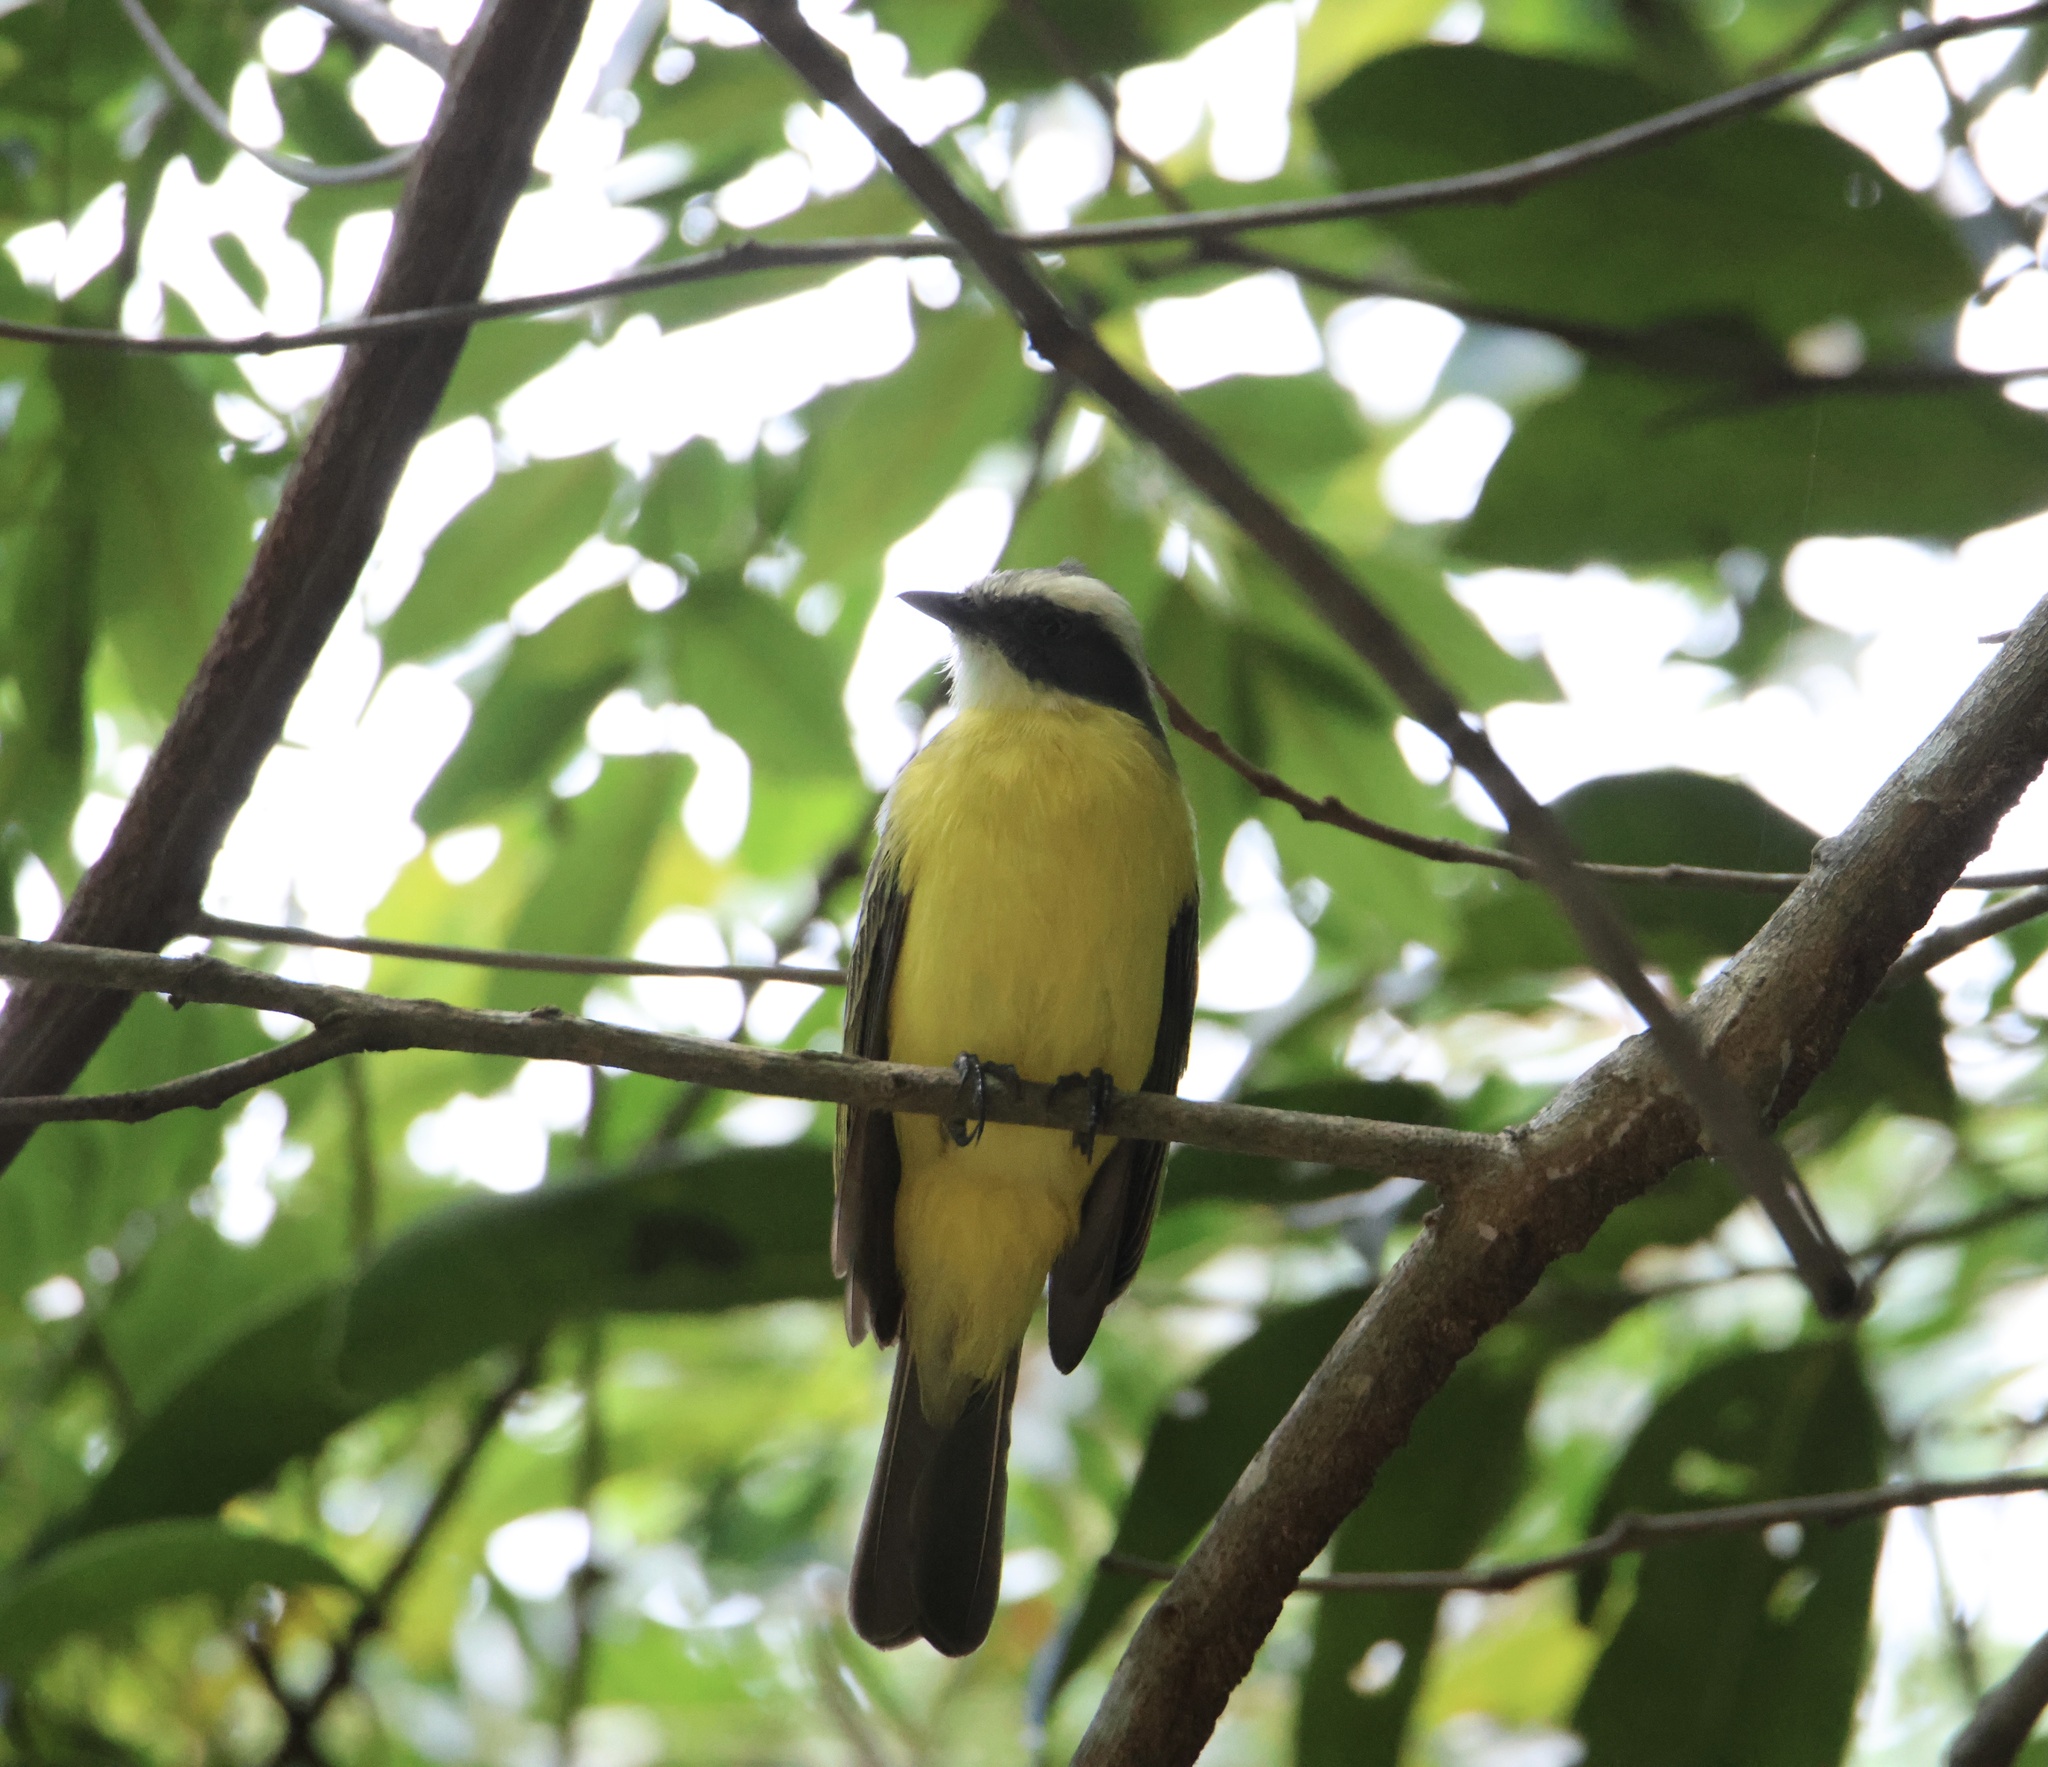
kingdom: Animalia
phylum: Chordata
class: Aves
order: Passeriformes
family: Tyrannidae
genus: Myiozetetes
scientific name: Myiozetetes similis
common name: Social flycatcher
